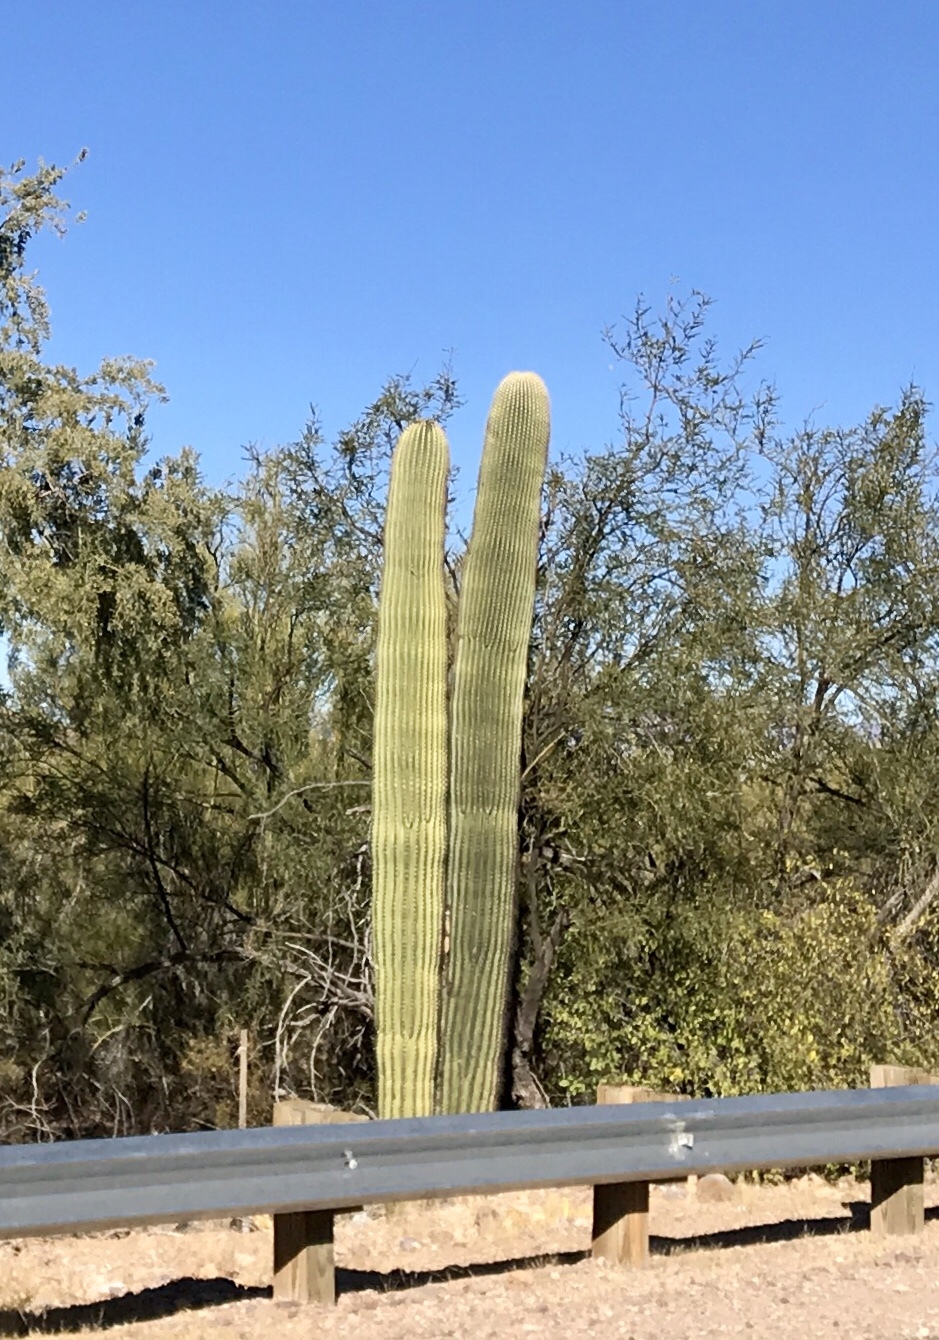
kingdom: Plantae
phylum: Tracheophyta
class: Magnoliopsida
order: Caryophyllales
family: Cactaceae
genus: Carnegiea
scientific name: Carnegiea gigantea
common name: Saguaro
